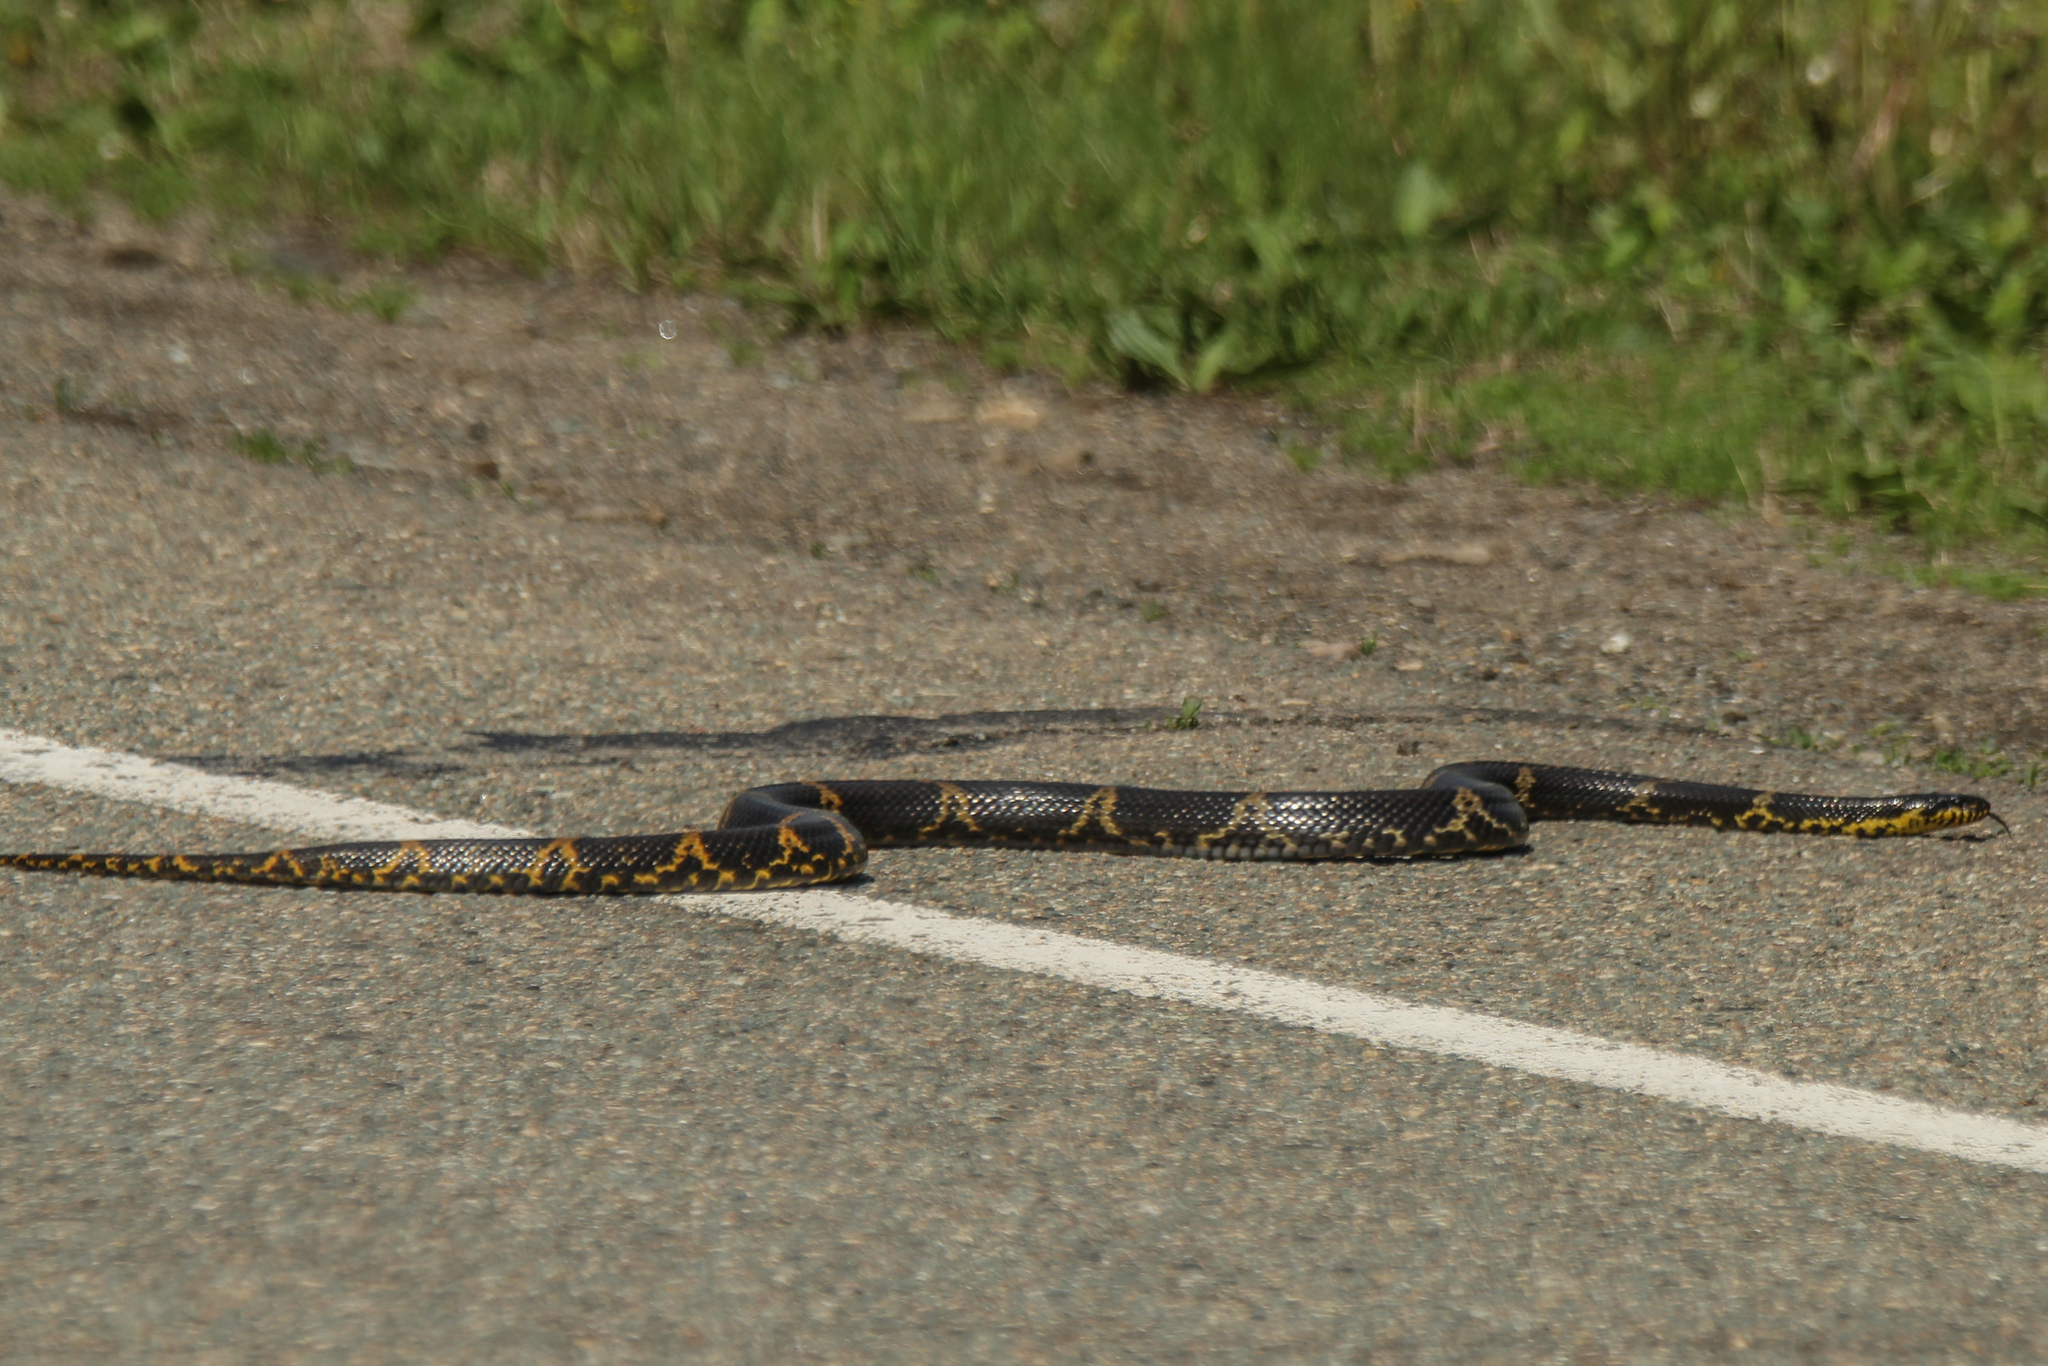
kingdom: Animalia
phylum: Chordata
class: Squamata
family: Colubridae
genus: Elaphe
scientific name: Elaphe schrenckii
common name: Amur rat snake
